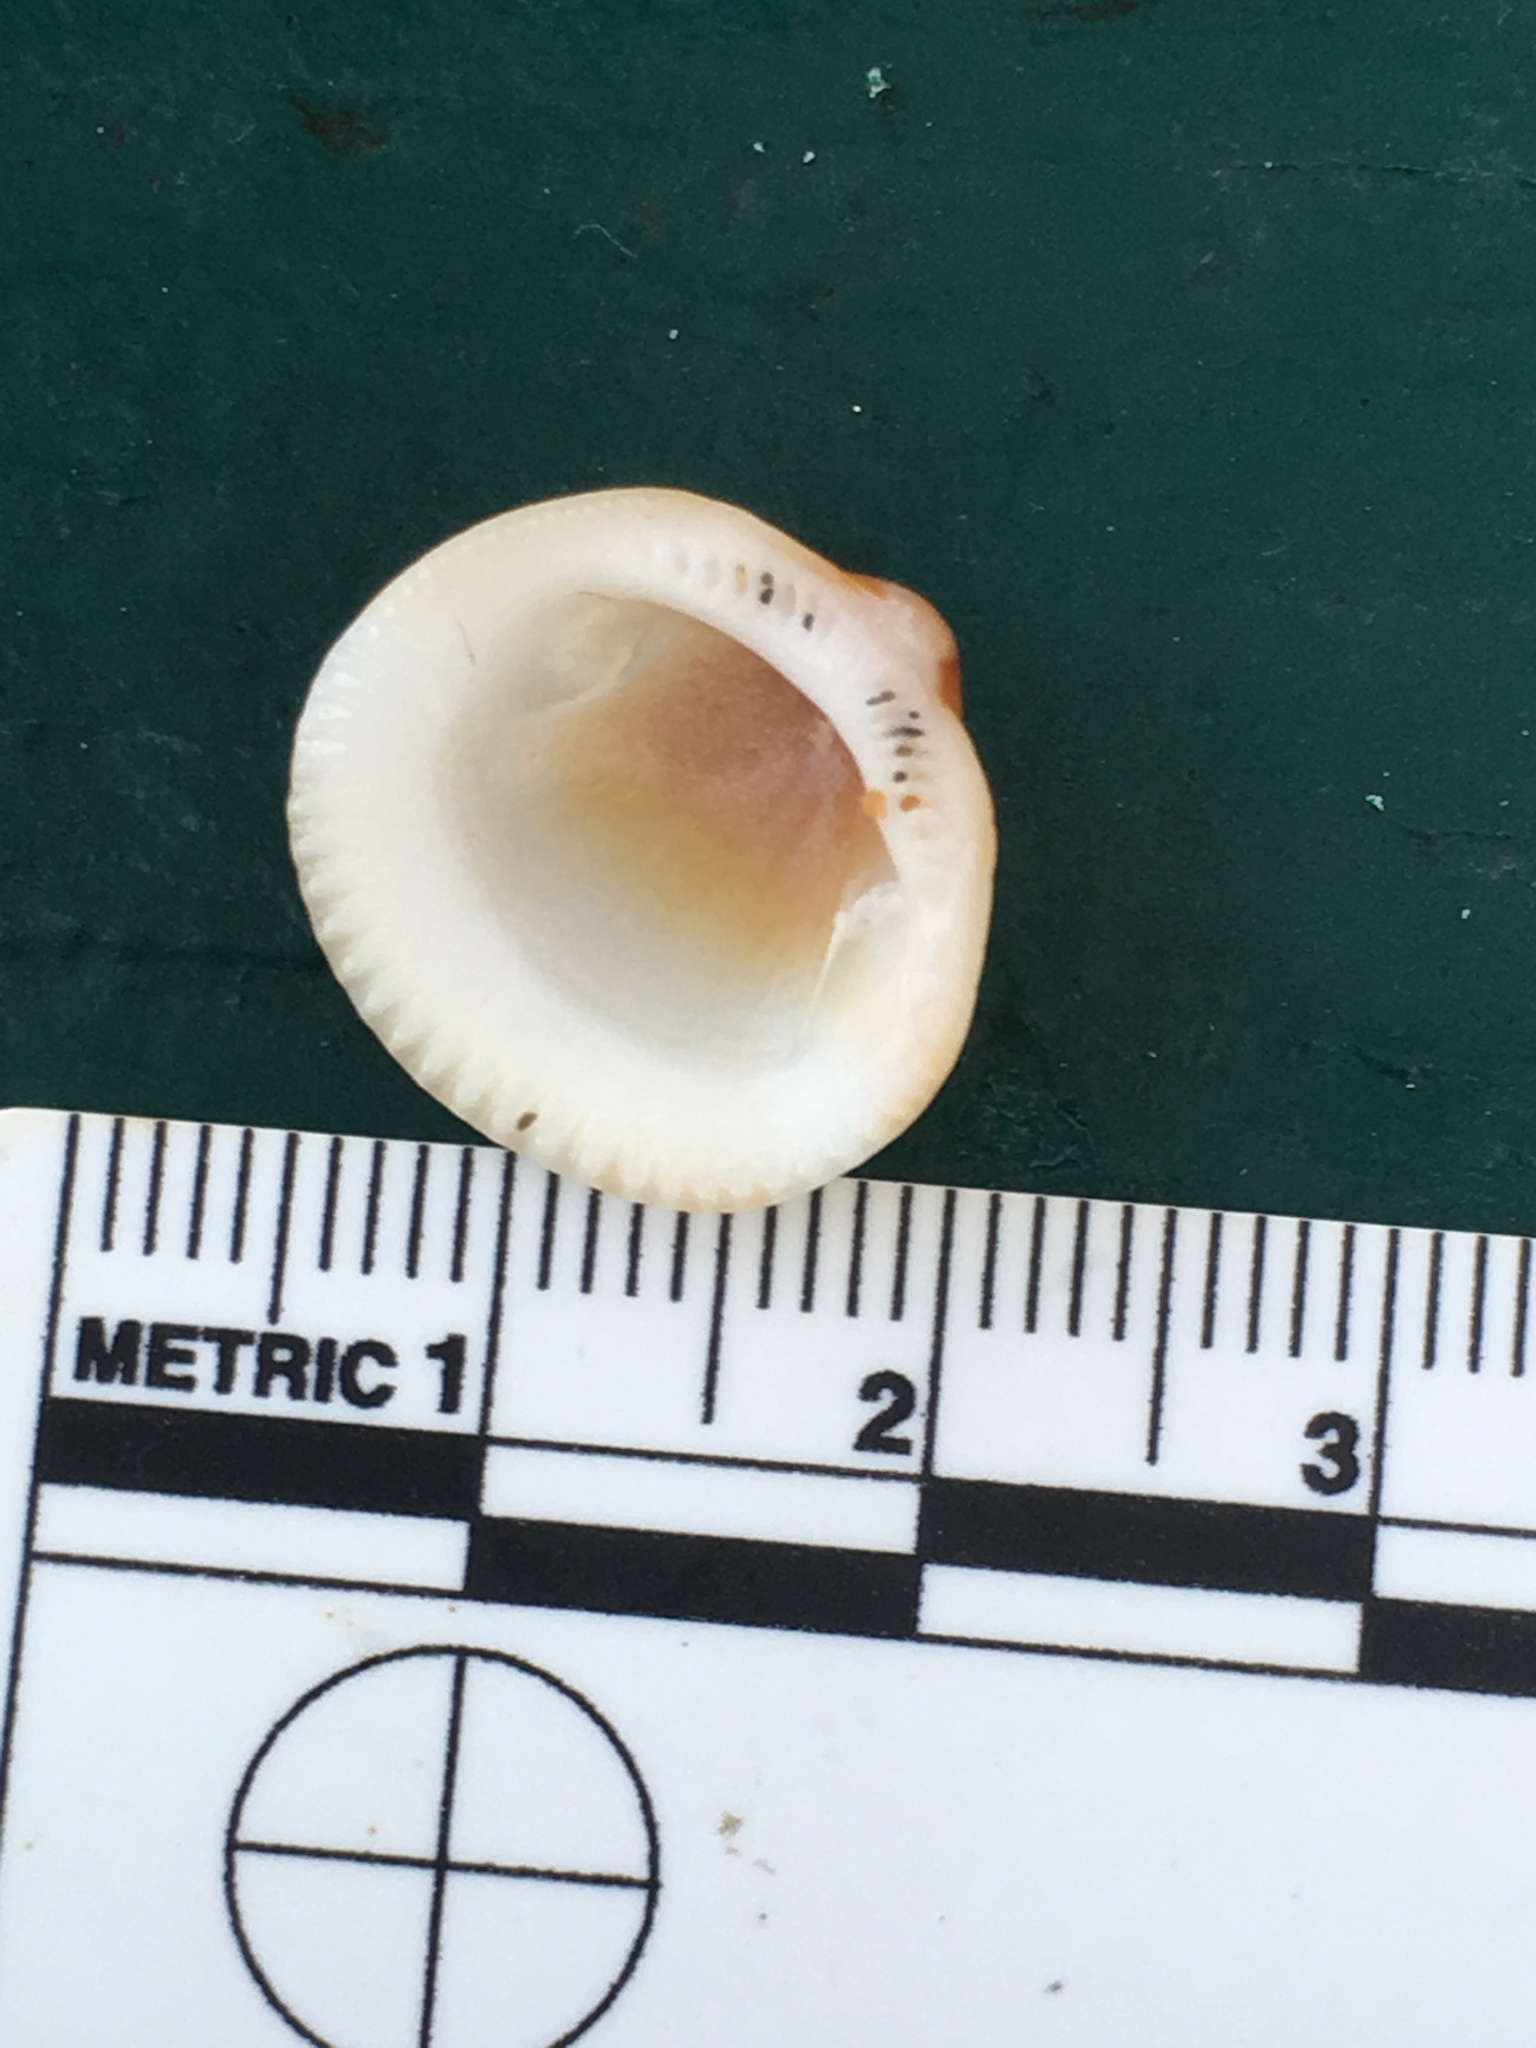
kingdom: Animalia
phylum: Mollusca
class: Bivalvia
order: Arcida
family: Glycymerididae
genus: Glycymeris
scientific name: Glycymeris spectralis
